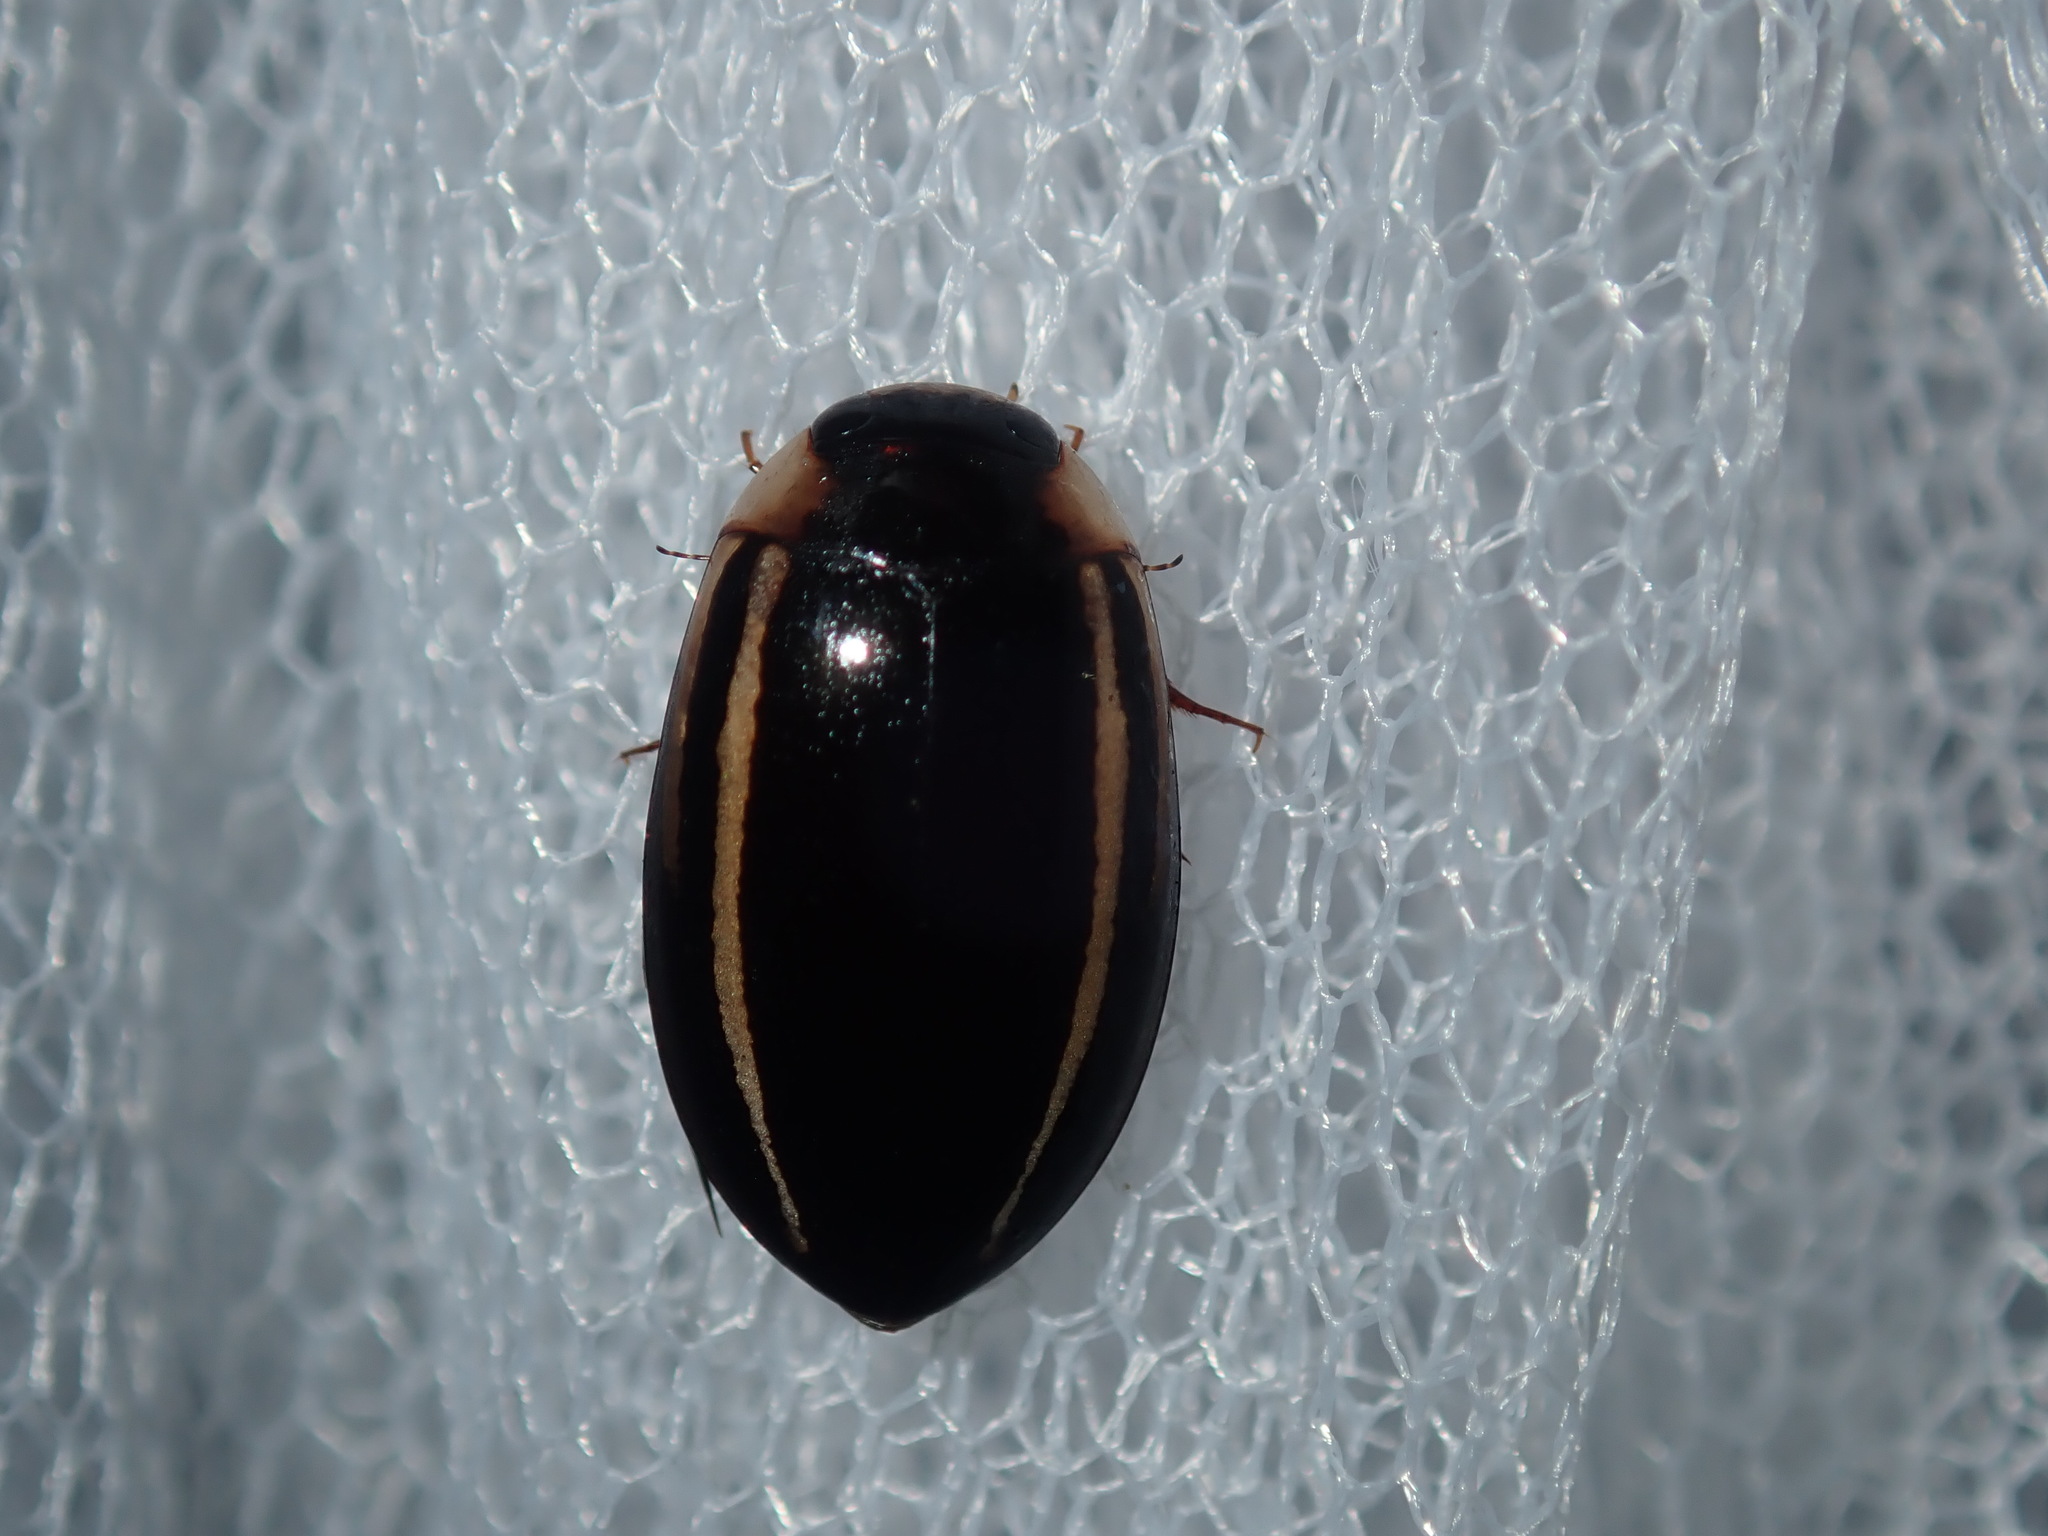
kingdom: Animalia
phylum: Arthropoda
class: Insecta
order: Coleoptera
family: Dytiscidae
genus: Hydaticus
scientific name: Hydaticus quadrivittatus
